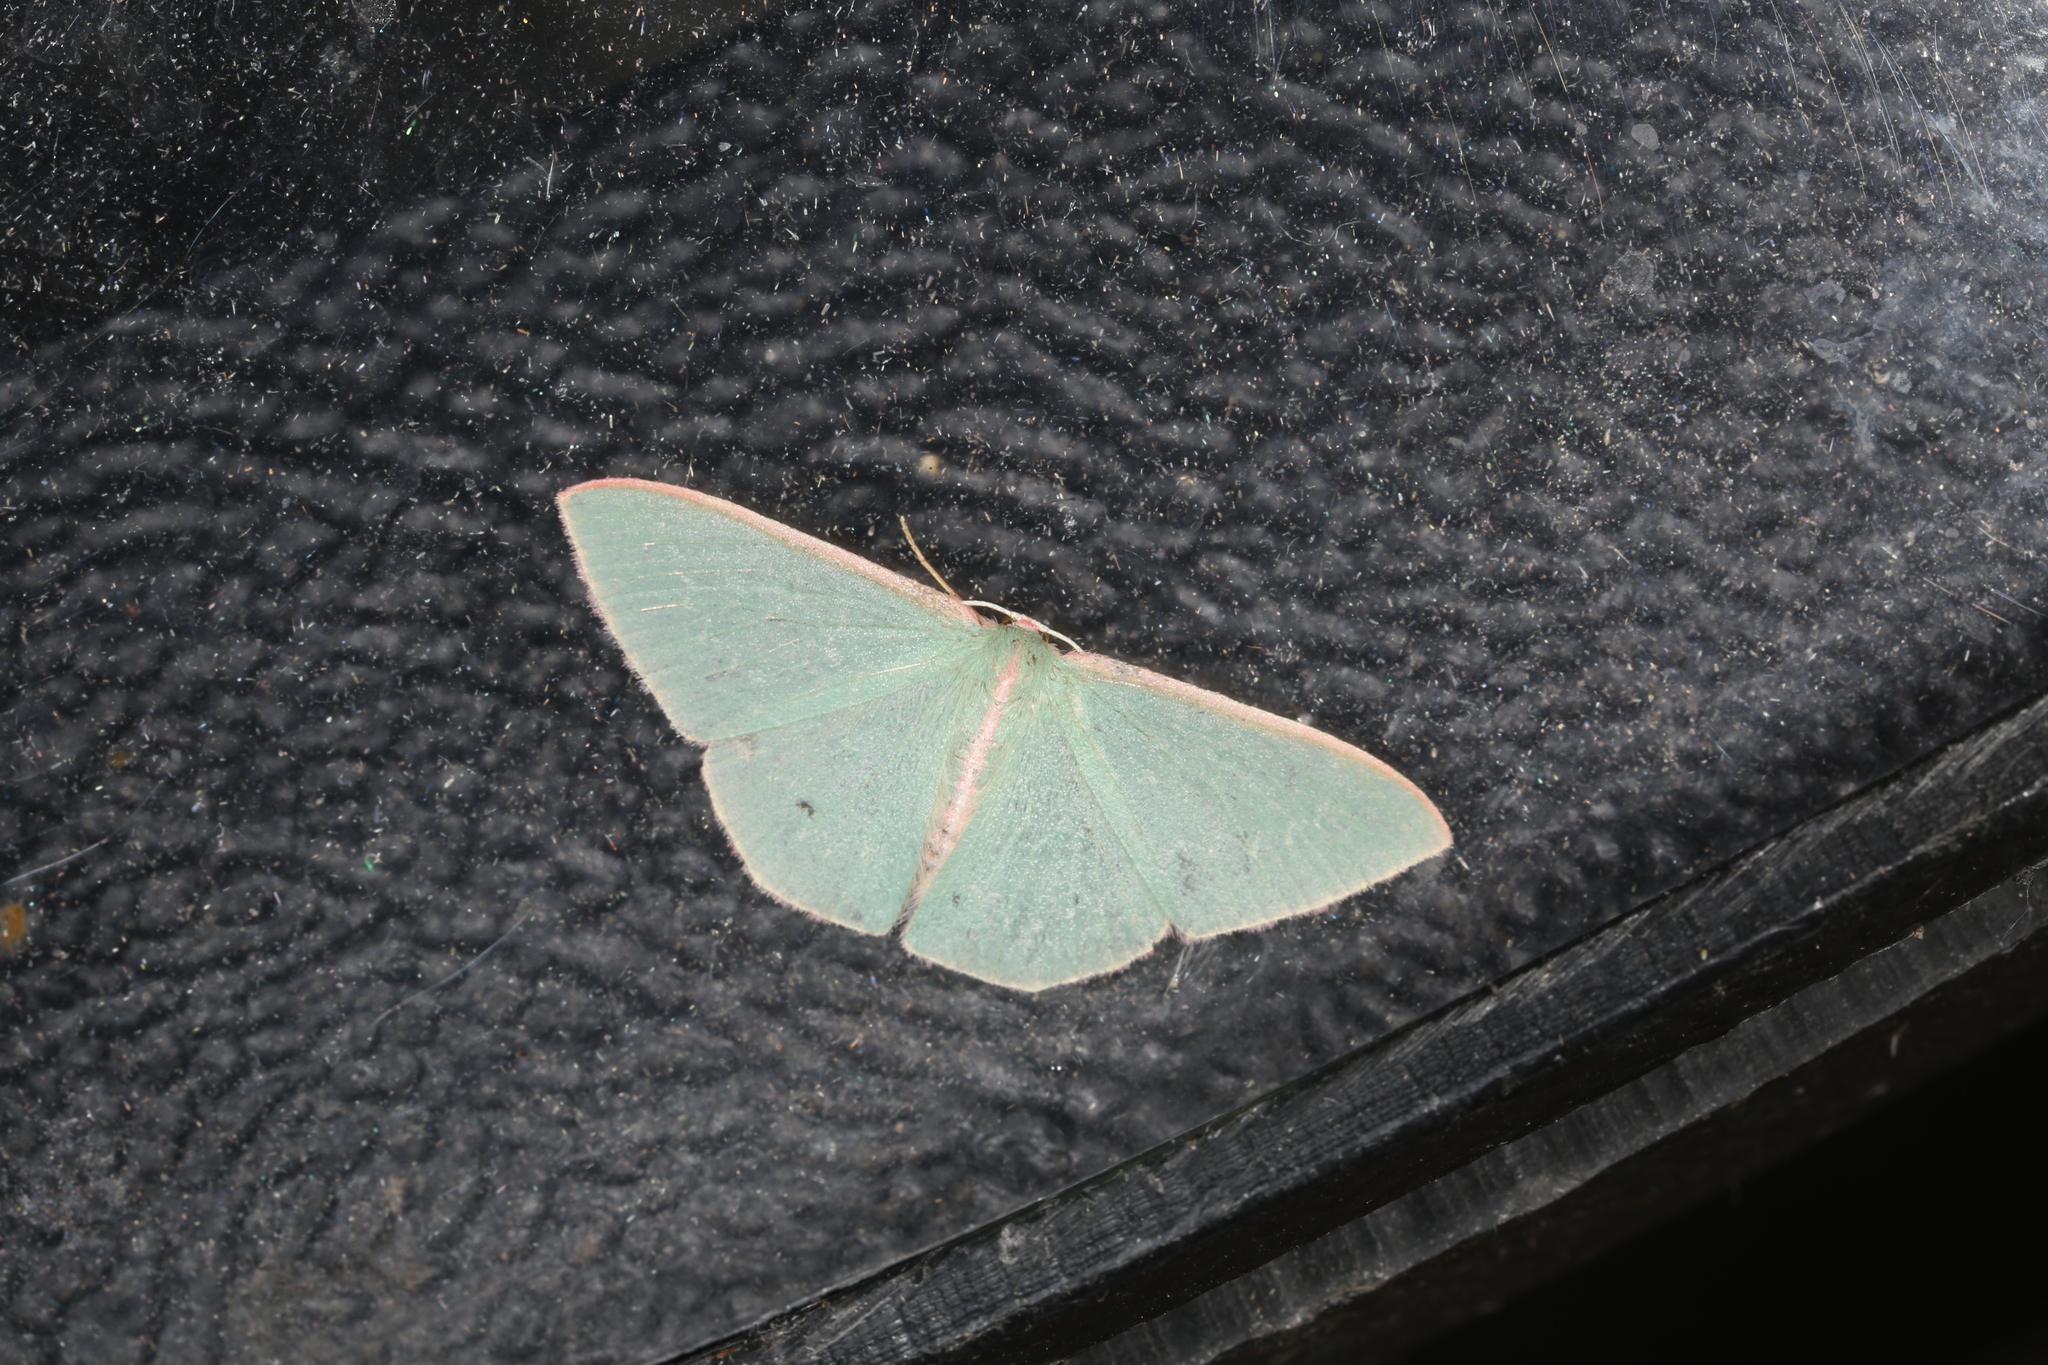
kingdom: Animalia
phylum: Arthropoda
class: Insecta
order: Lepidoptera
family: Geometridae
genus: Chlorocoma
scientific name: Chlorocoma vertumnaria
